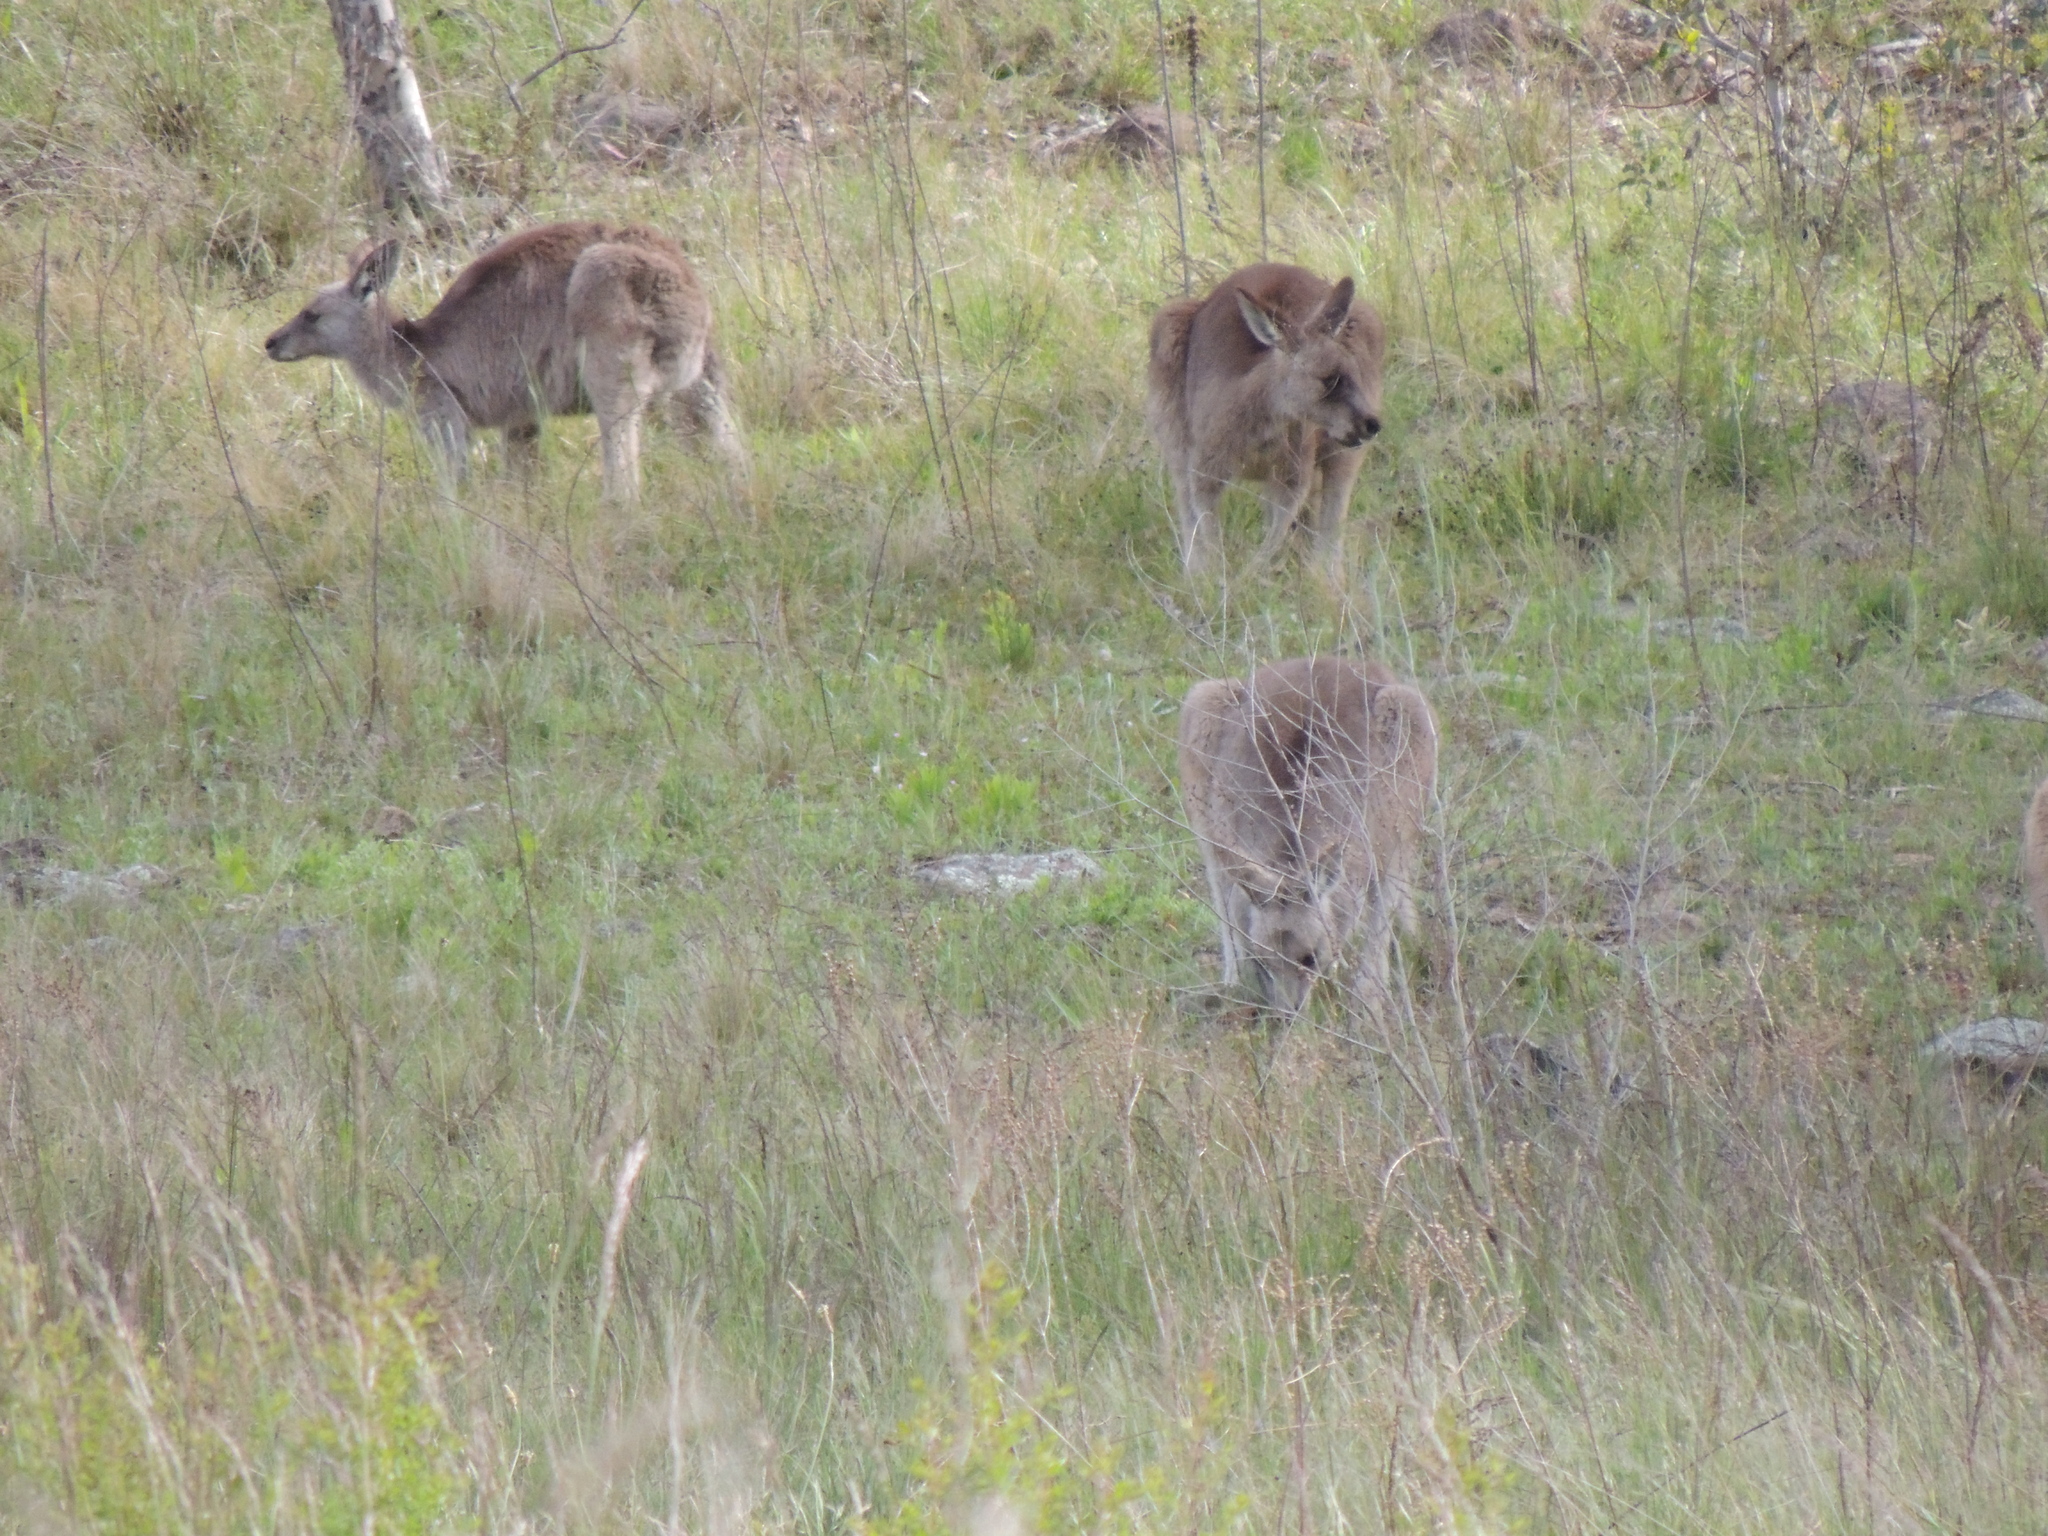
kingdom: Animalia
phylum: Chordata
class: Mammalia
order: Diprotodontia
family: Macropodidae
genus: Macropus
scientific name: Macropus giganteus
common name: Eastern grey kangaroo
